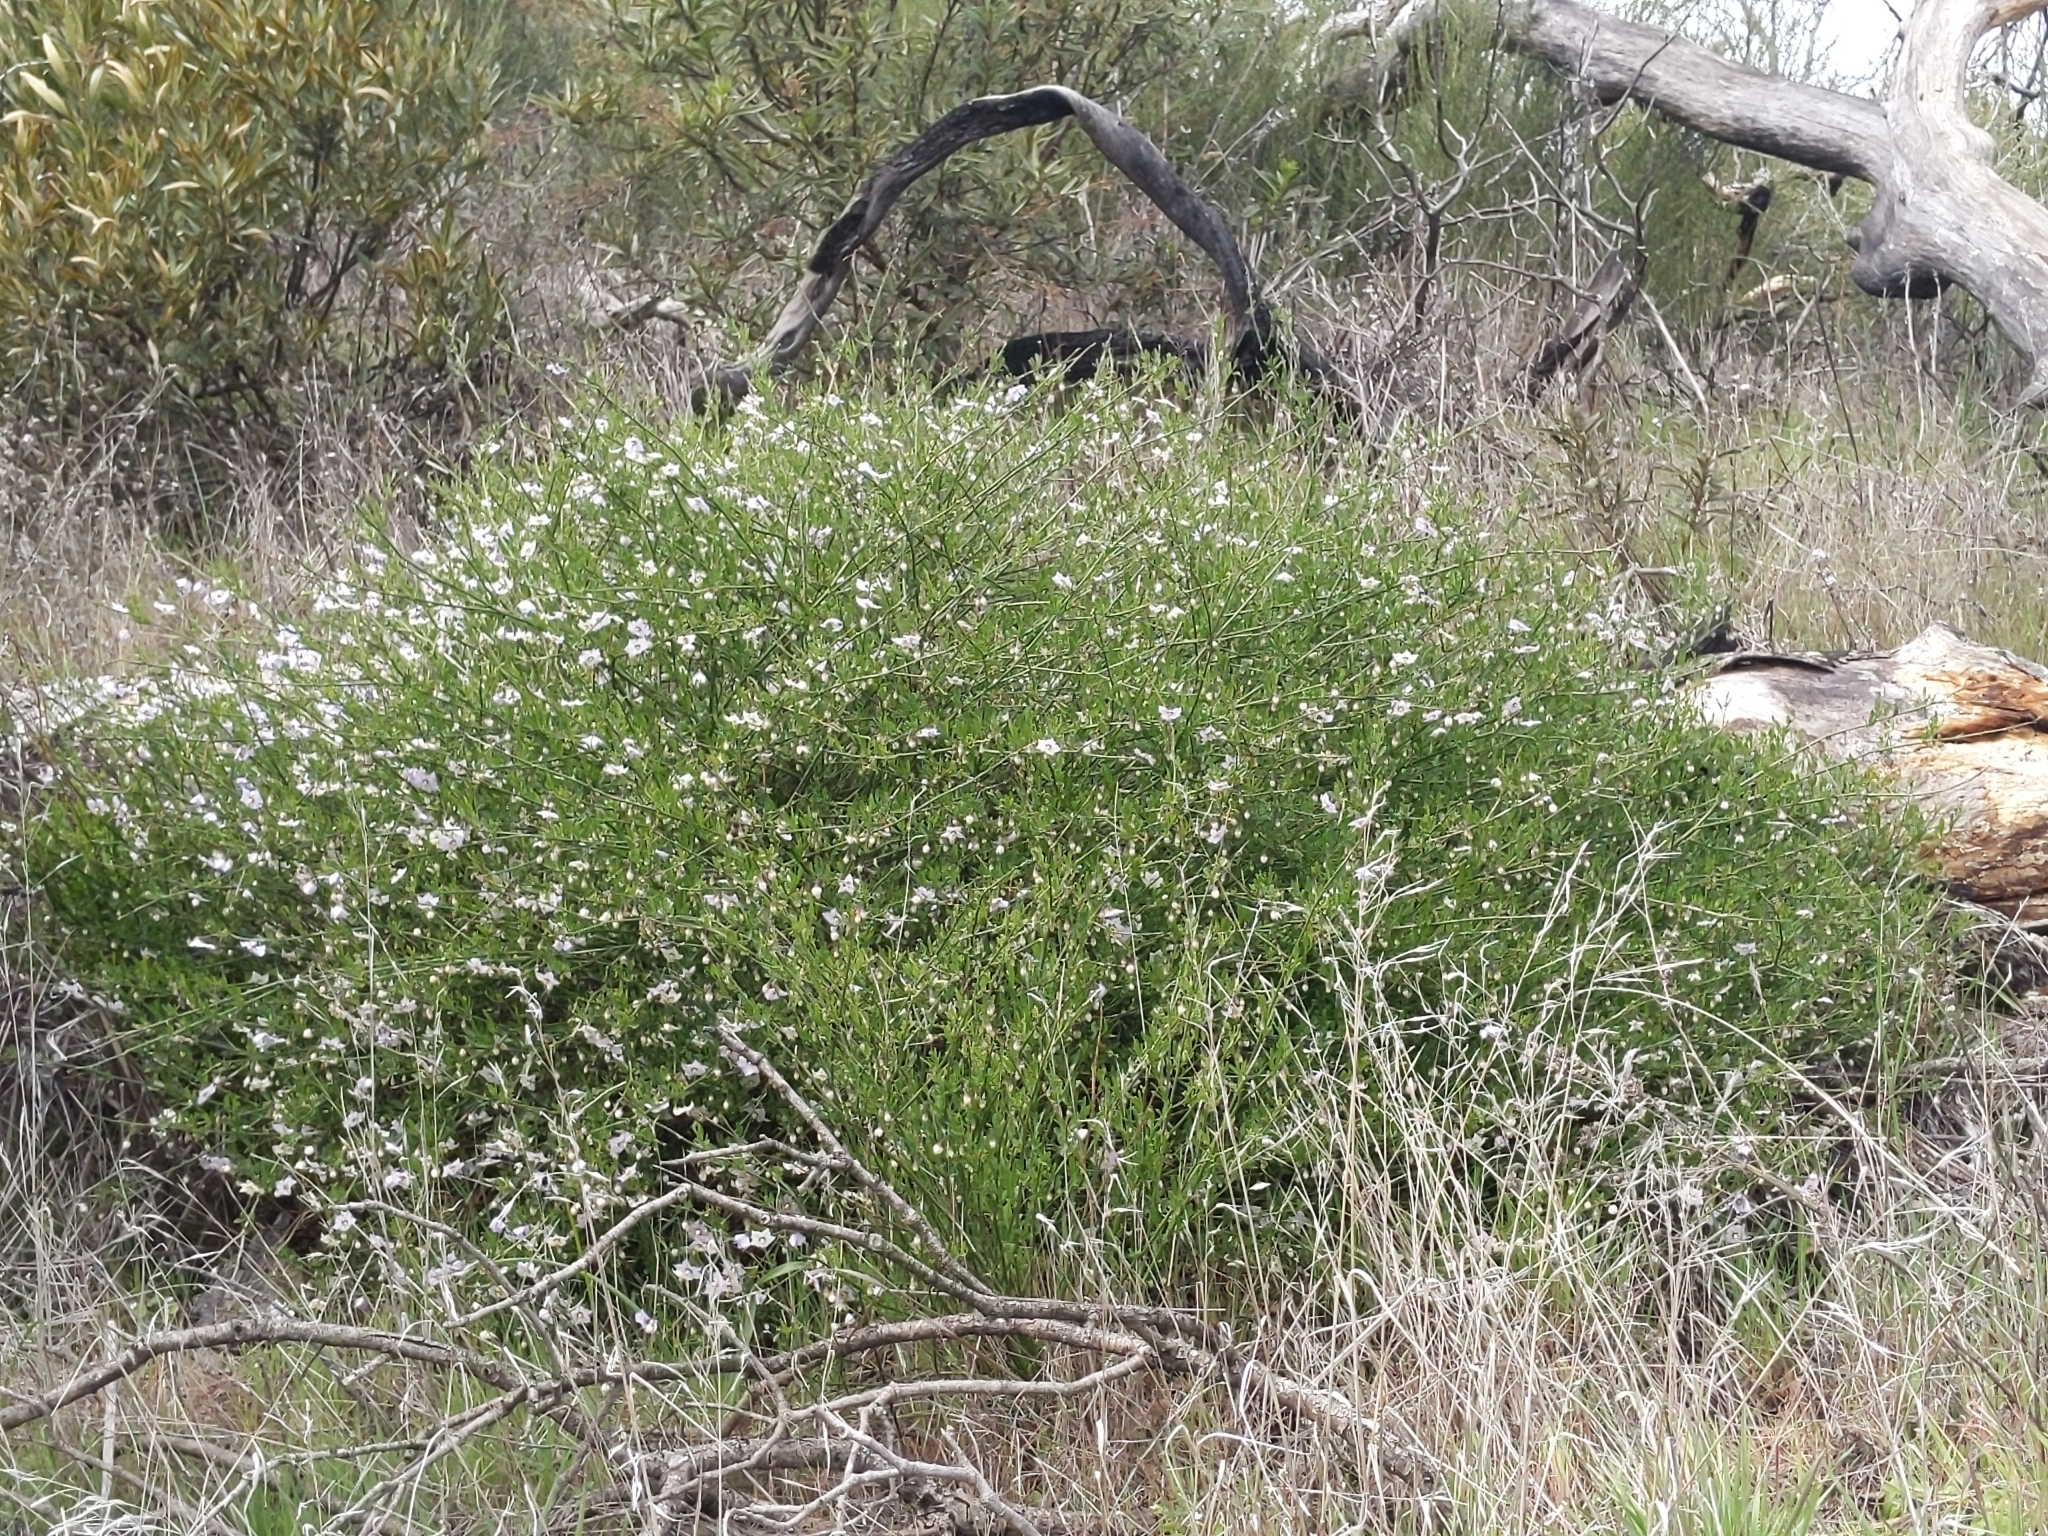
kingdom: Plantae
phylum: Tracheophyta
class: Magnoliopsida
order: Solanales
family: Solanaceae
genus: Solanum
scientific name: Solanum umbelliferum
